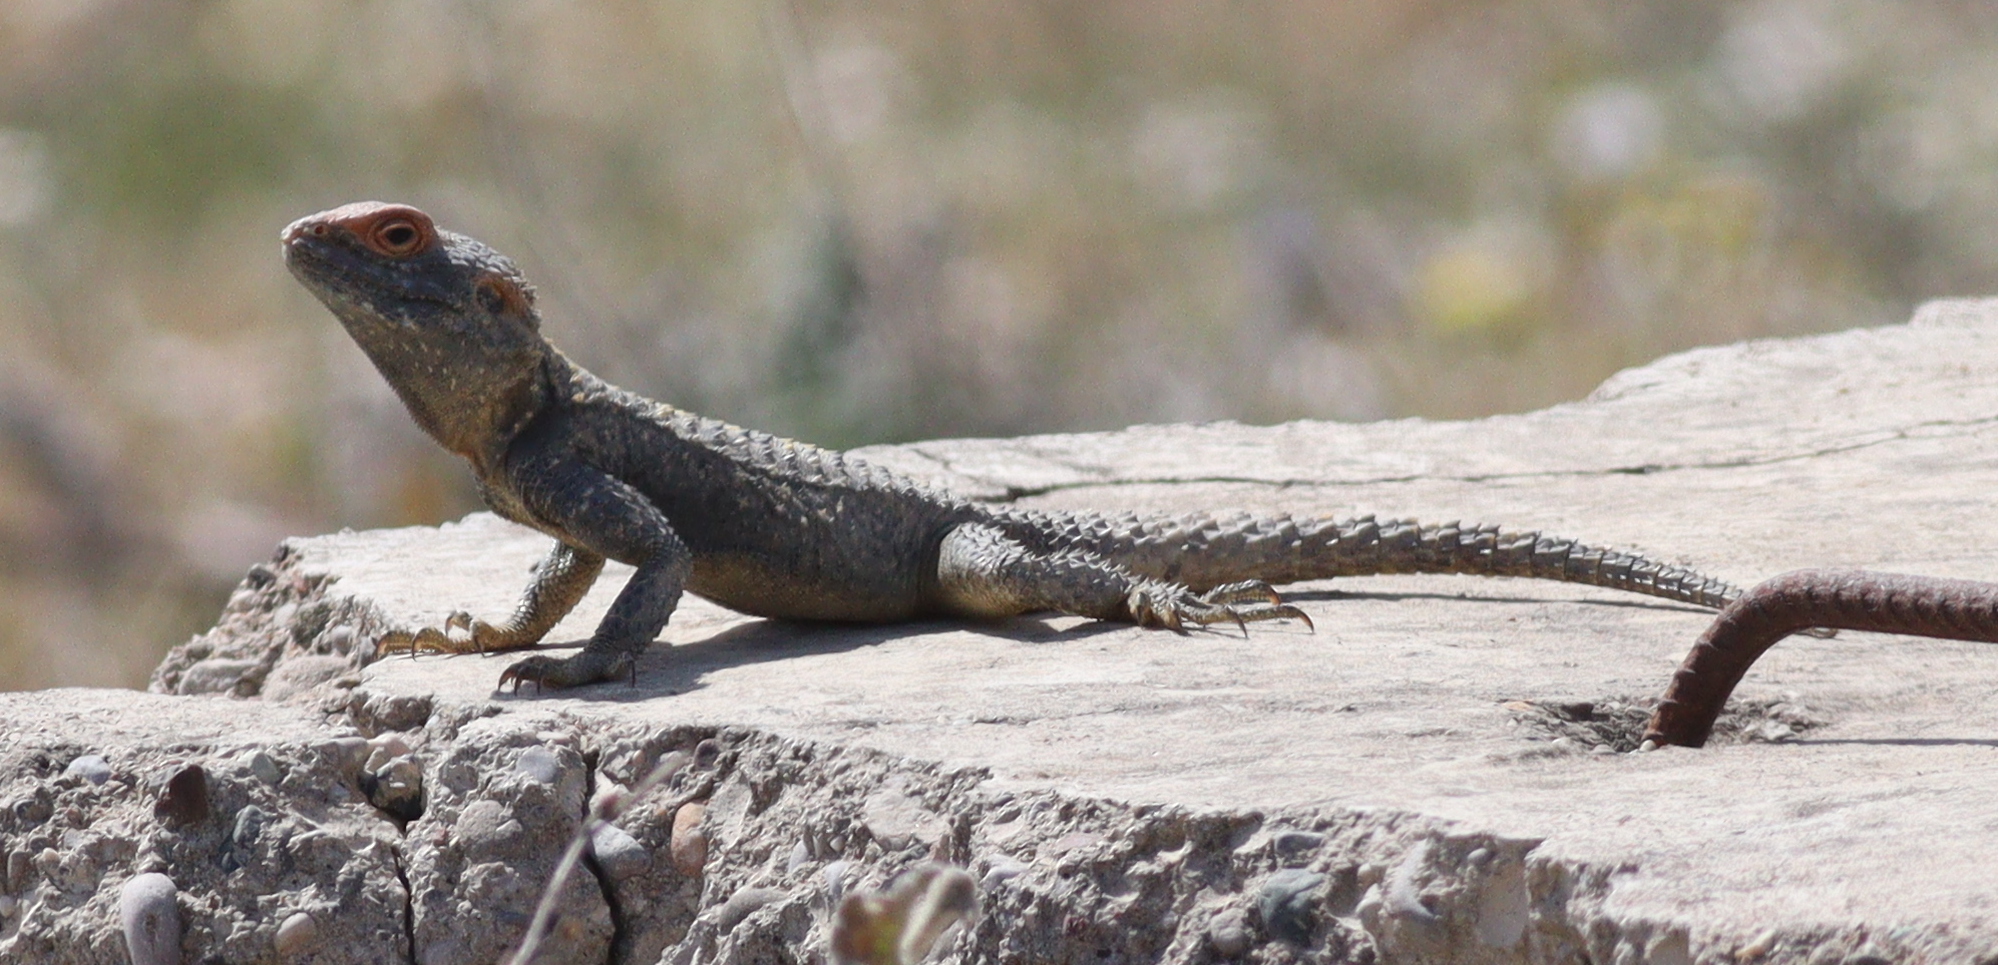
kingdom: Animalia
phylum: Chordata
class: Squamata
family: Agamidae
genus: Stellagama
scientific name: Stellagama stellio
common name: Starred agama
